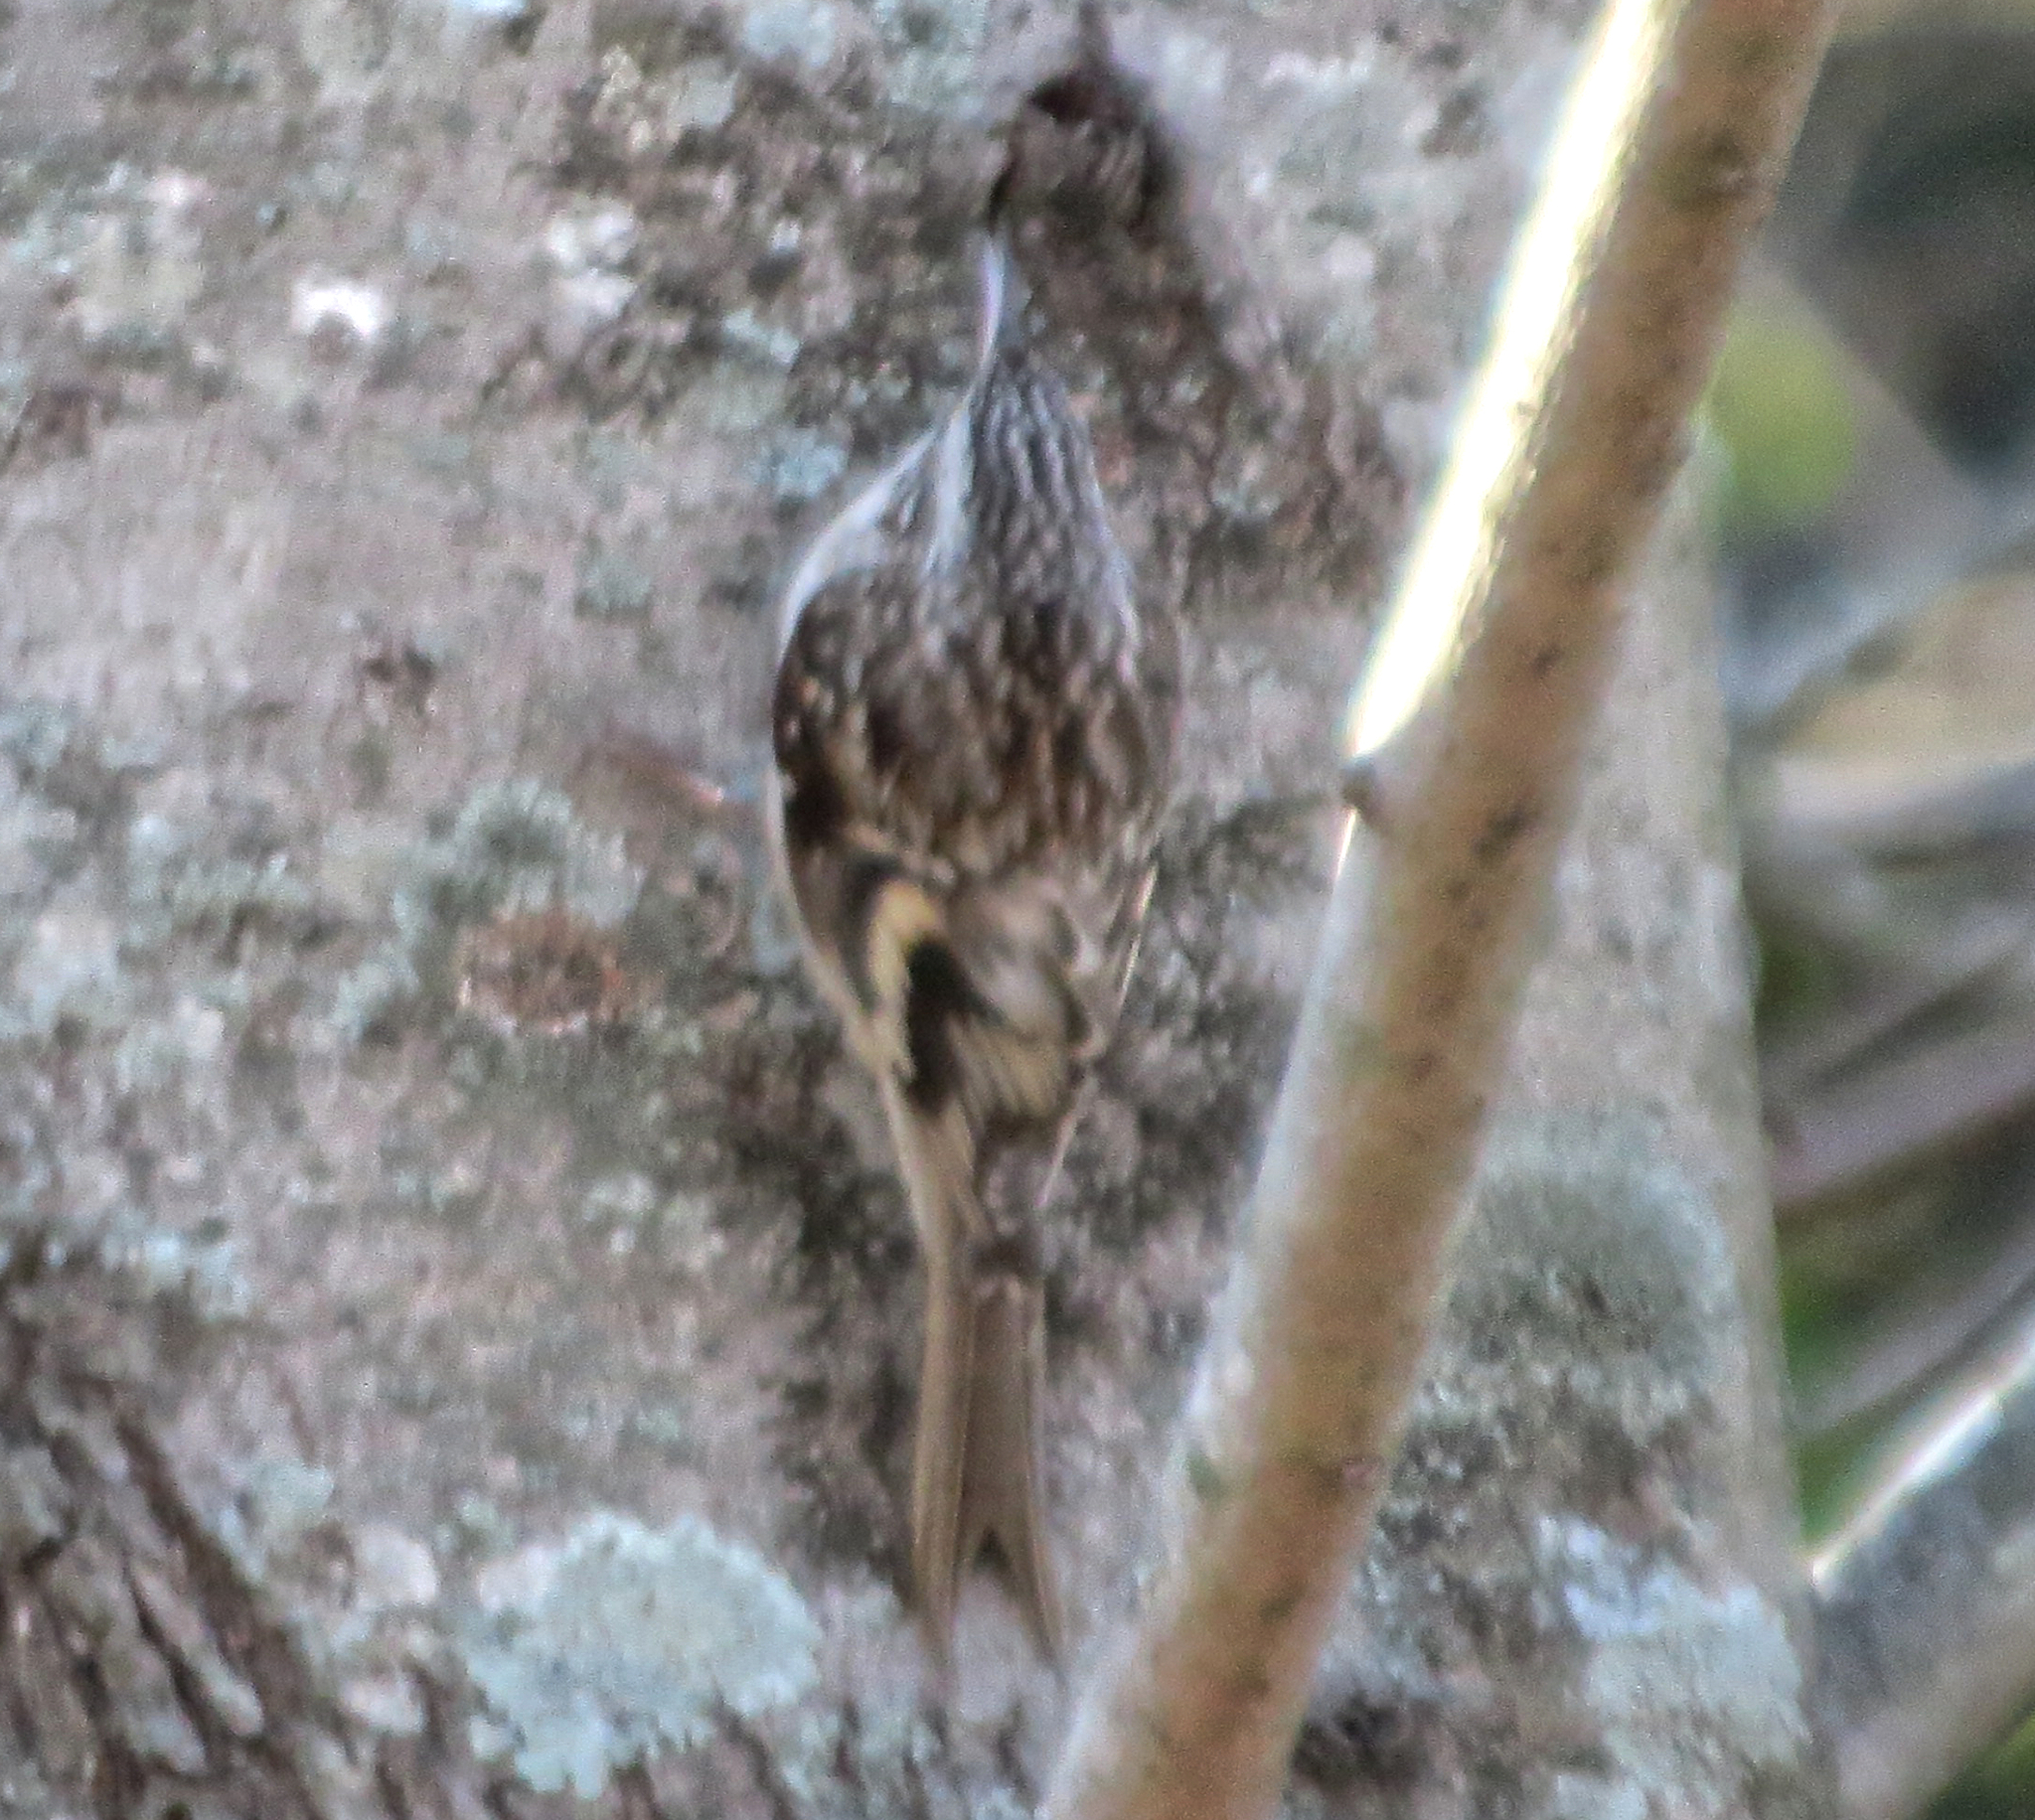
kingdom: Animalia
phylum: Chordata
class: Aves
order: Passeriformes
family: Certhiidae
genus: Certhia
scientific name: Certhia americana
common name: Brown creeper
